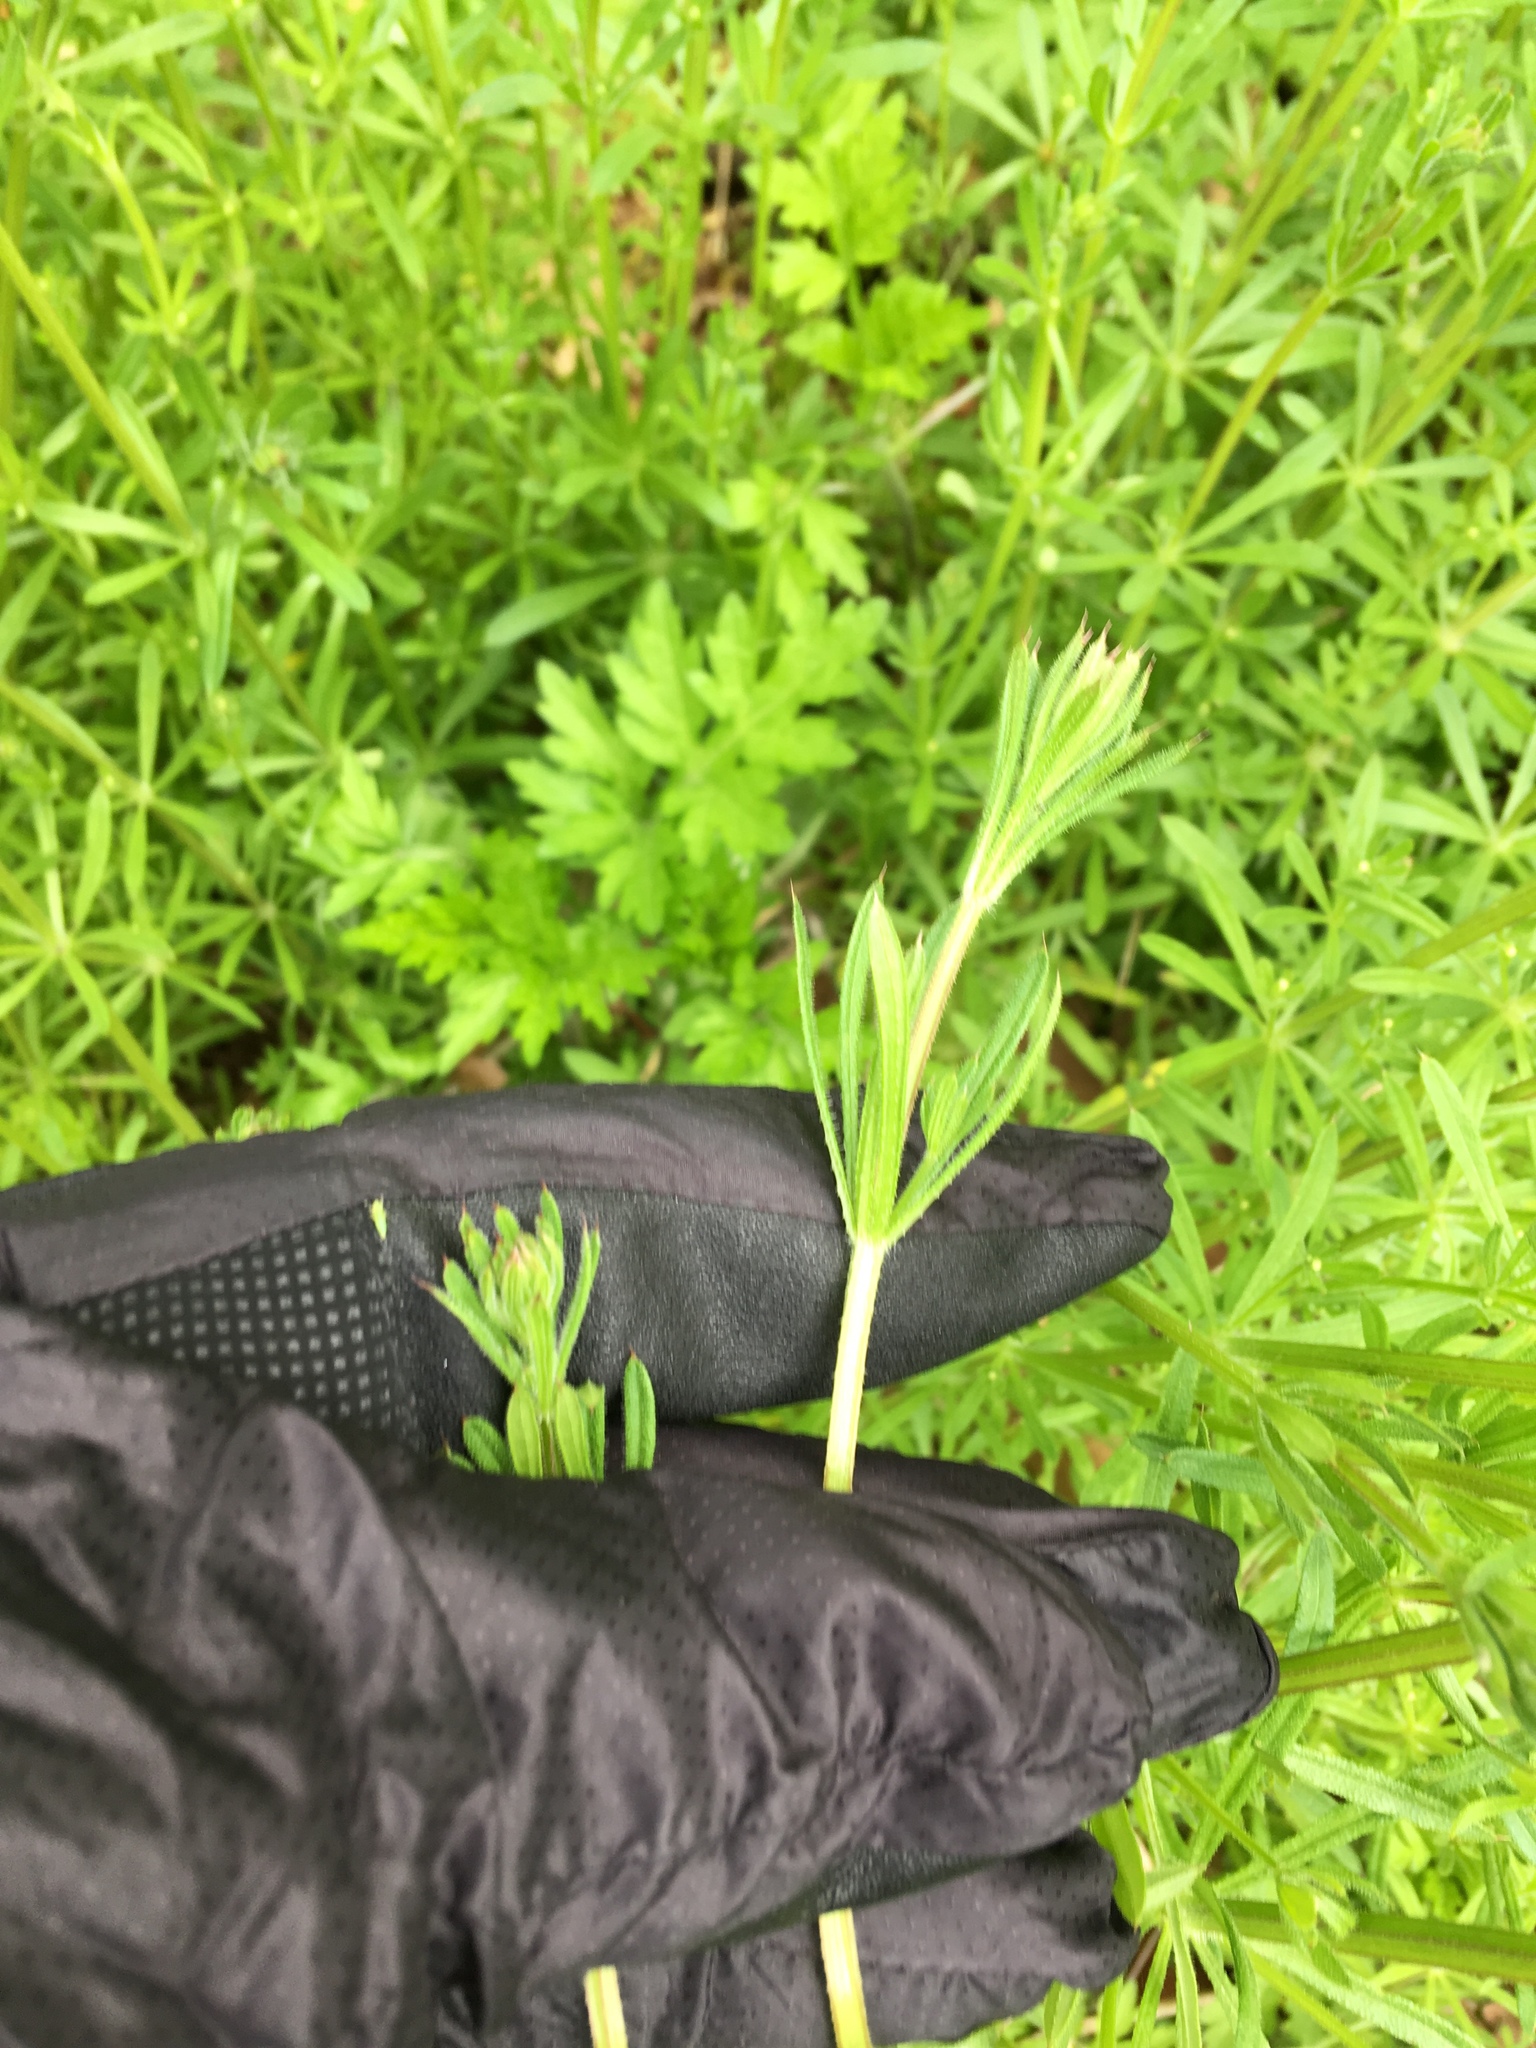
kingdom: Plantae
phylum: Tracheophyta
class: Magnoliopsida
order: Gentianales
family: Rubiaceae
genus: Galium
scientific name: Galium aparine
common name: Cleavers
